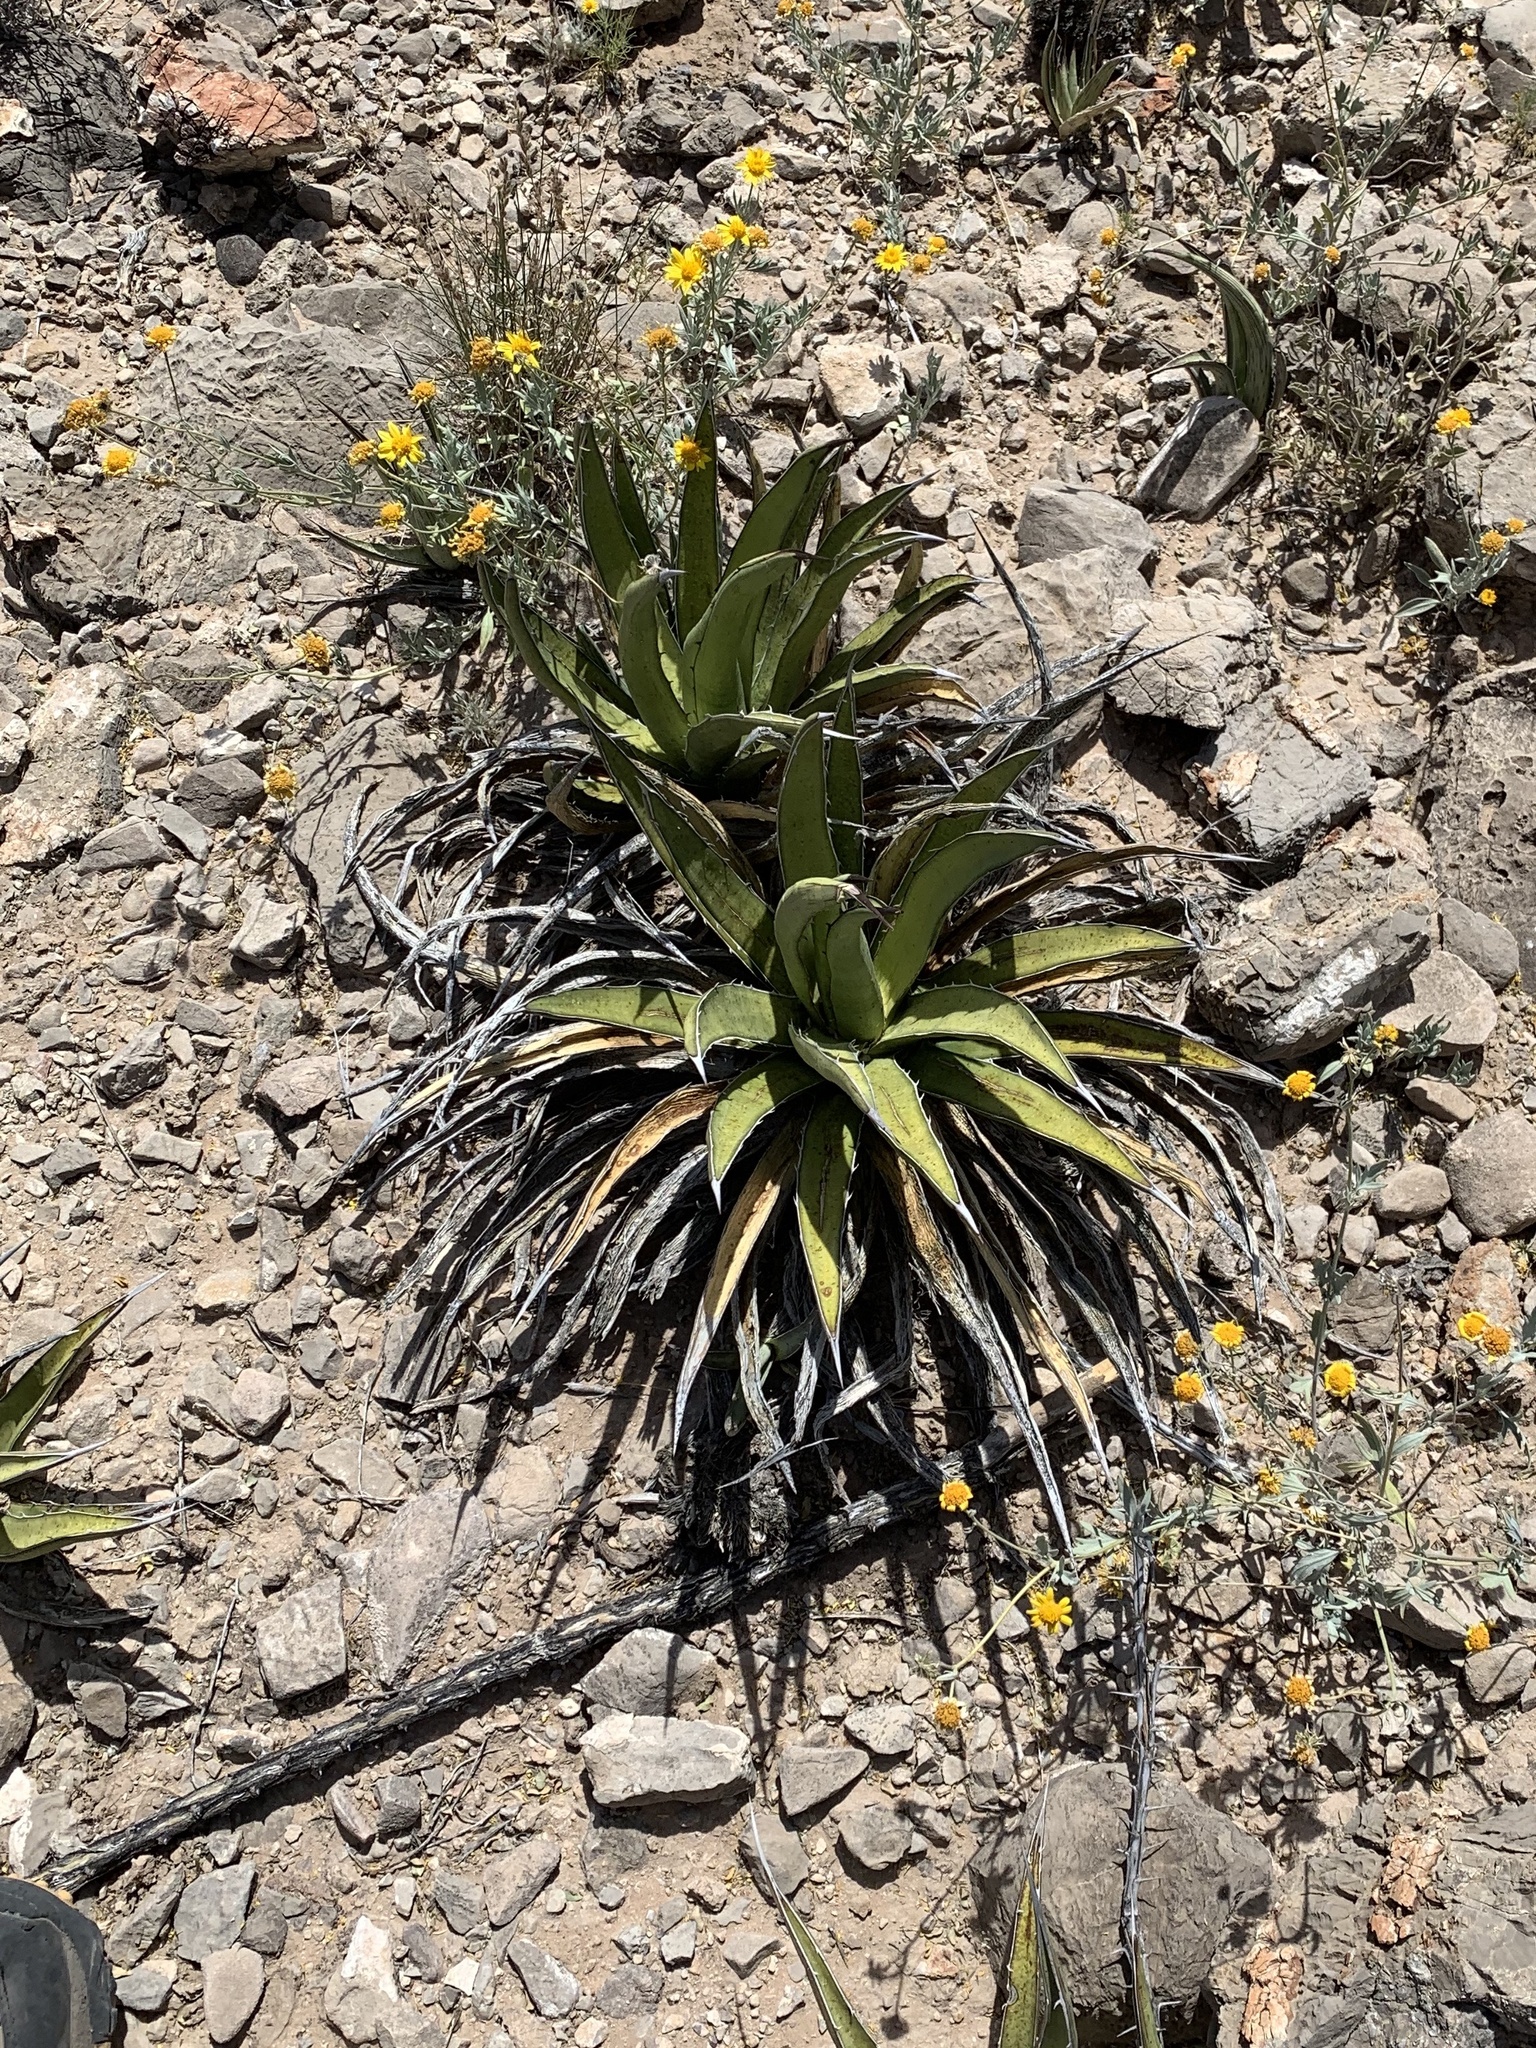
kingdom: Plantae
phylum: Tracheophyta
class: Liliopsida
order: Asparagales
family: Asparagaceae
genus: Agave
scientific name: Agave lechuguilla
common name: Lecheguilla agave
